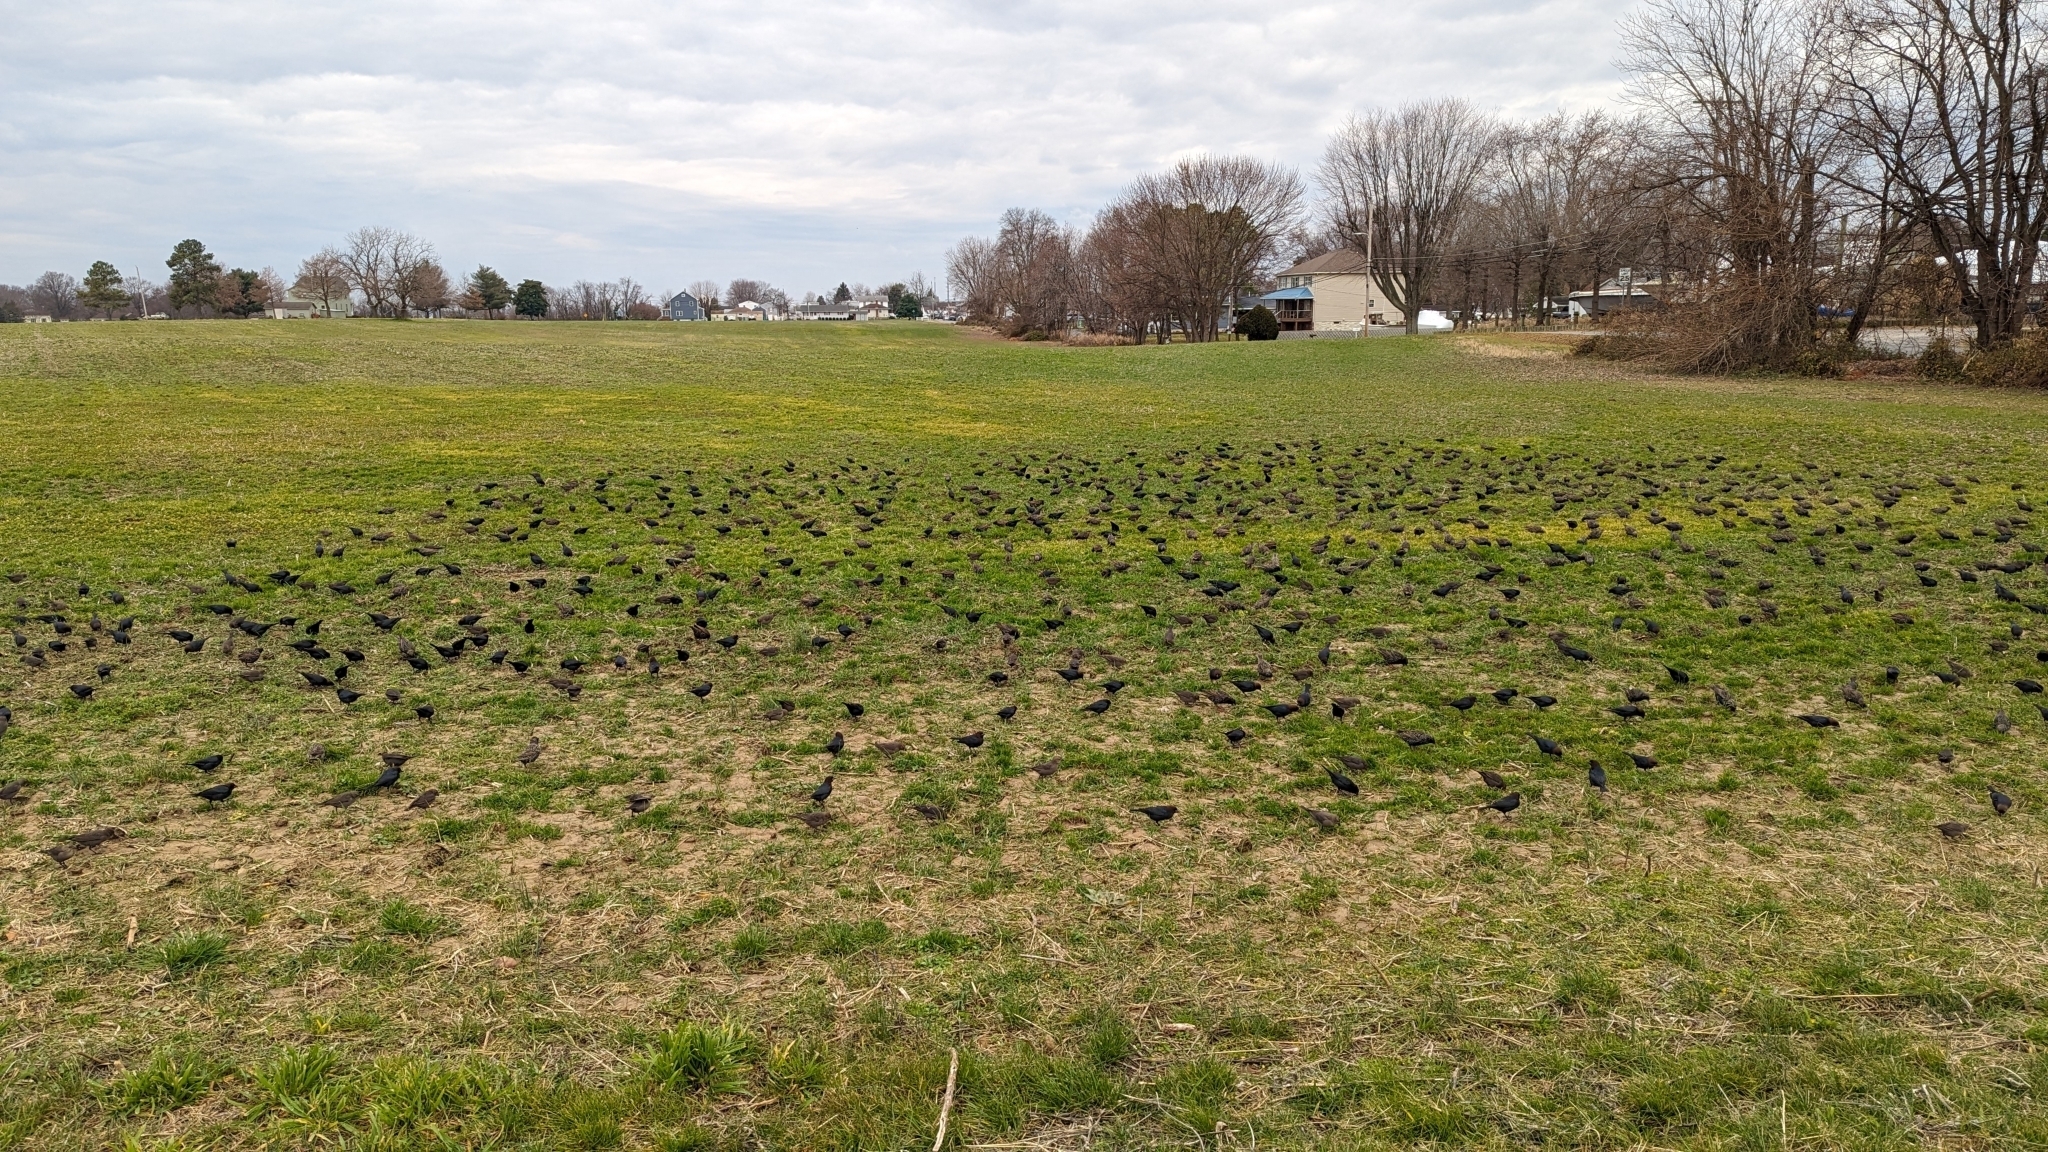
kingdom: Animalia
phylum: Chordata
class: Aves
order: Passeriformes
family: Icteridae
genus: Molothrus
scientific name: Molothrus ater
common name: Brown-headed cowbird
